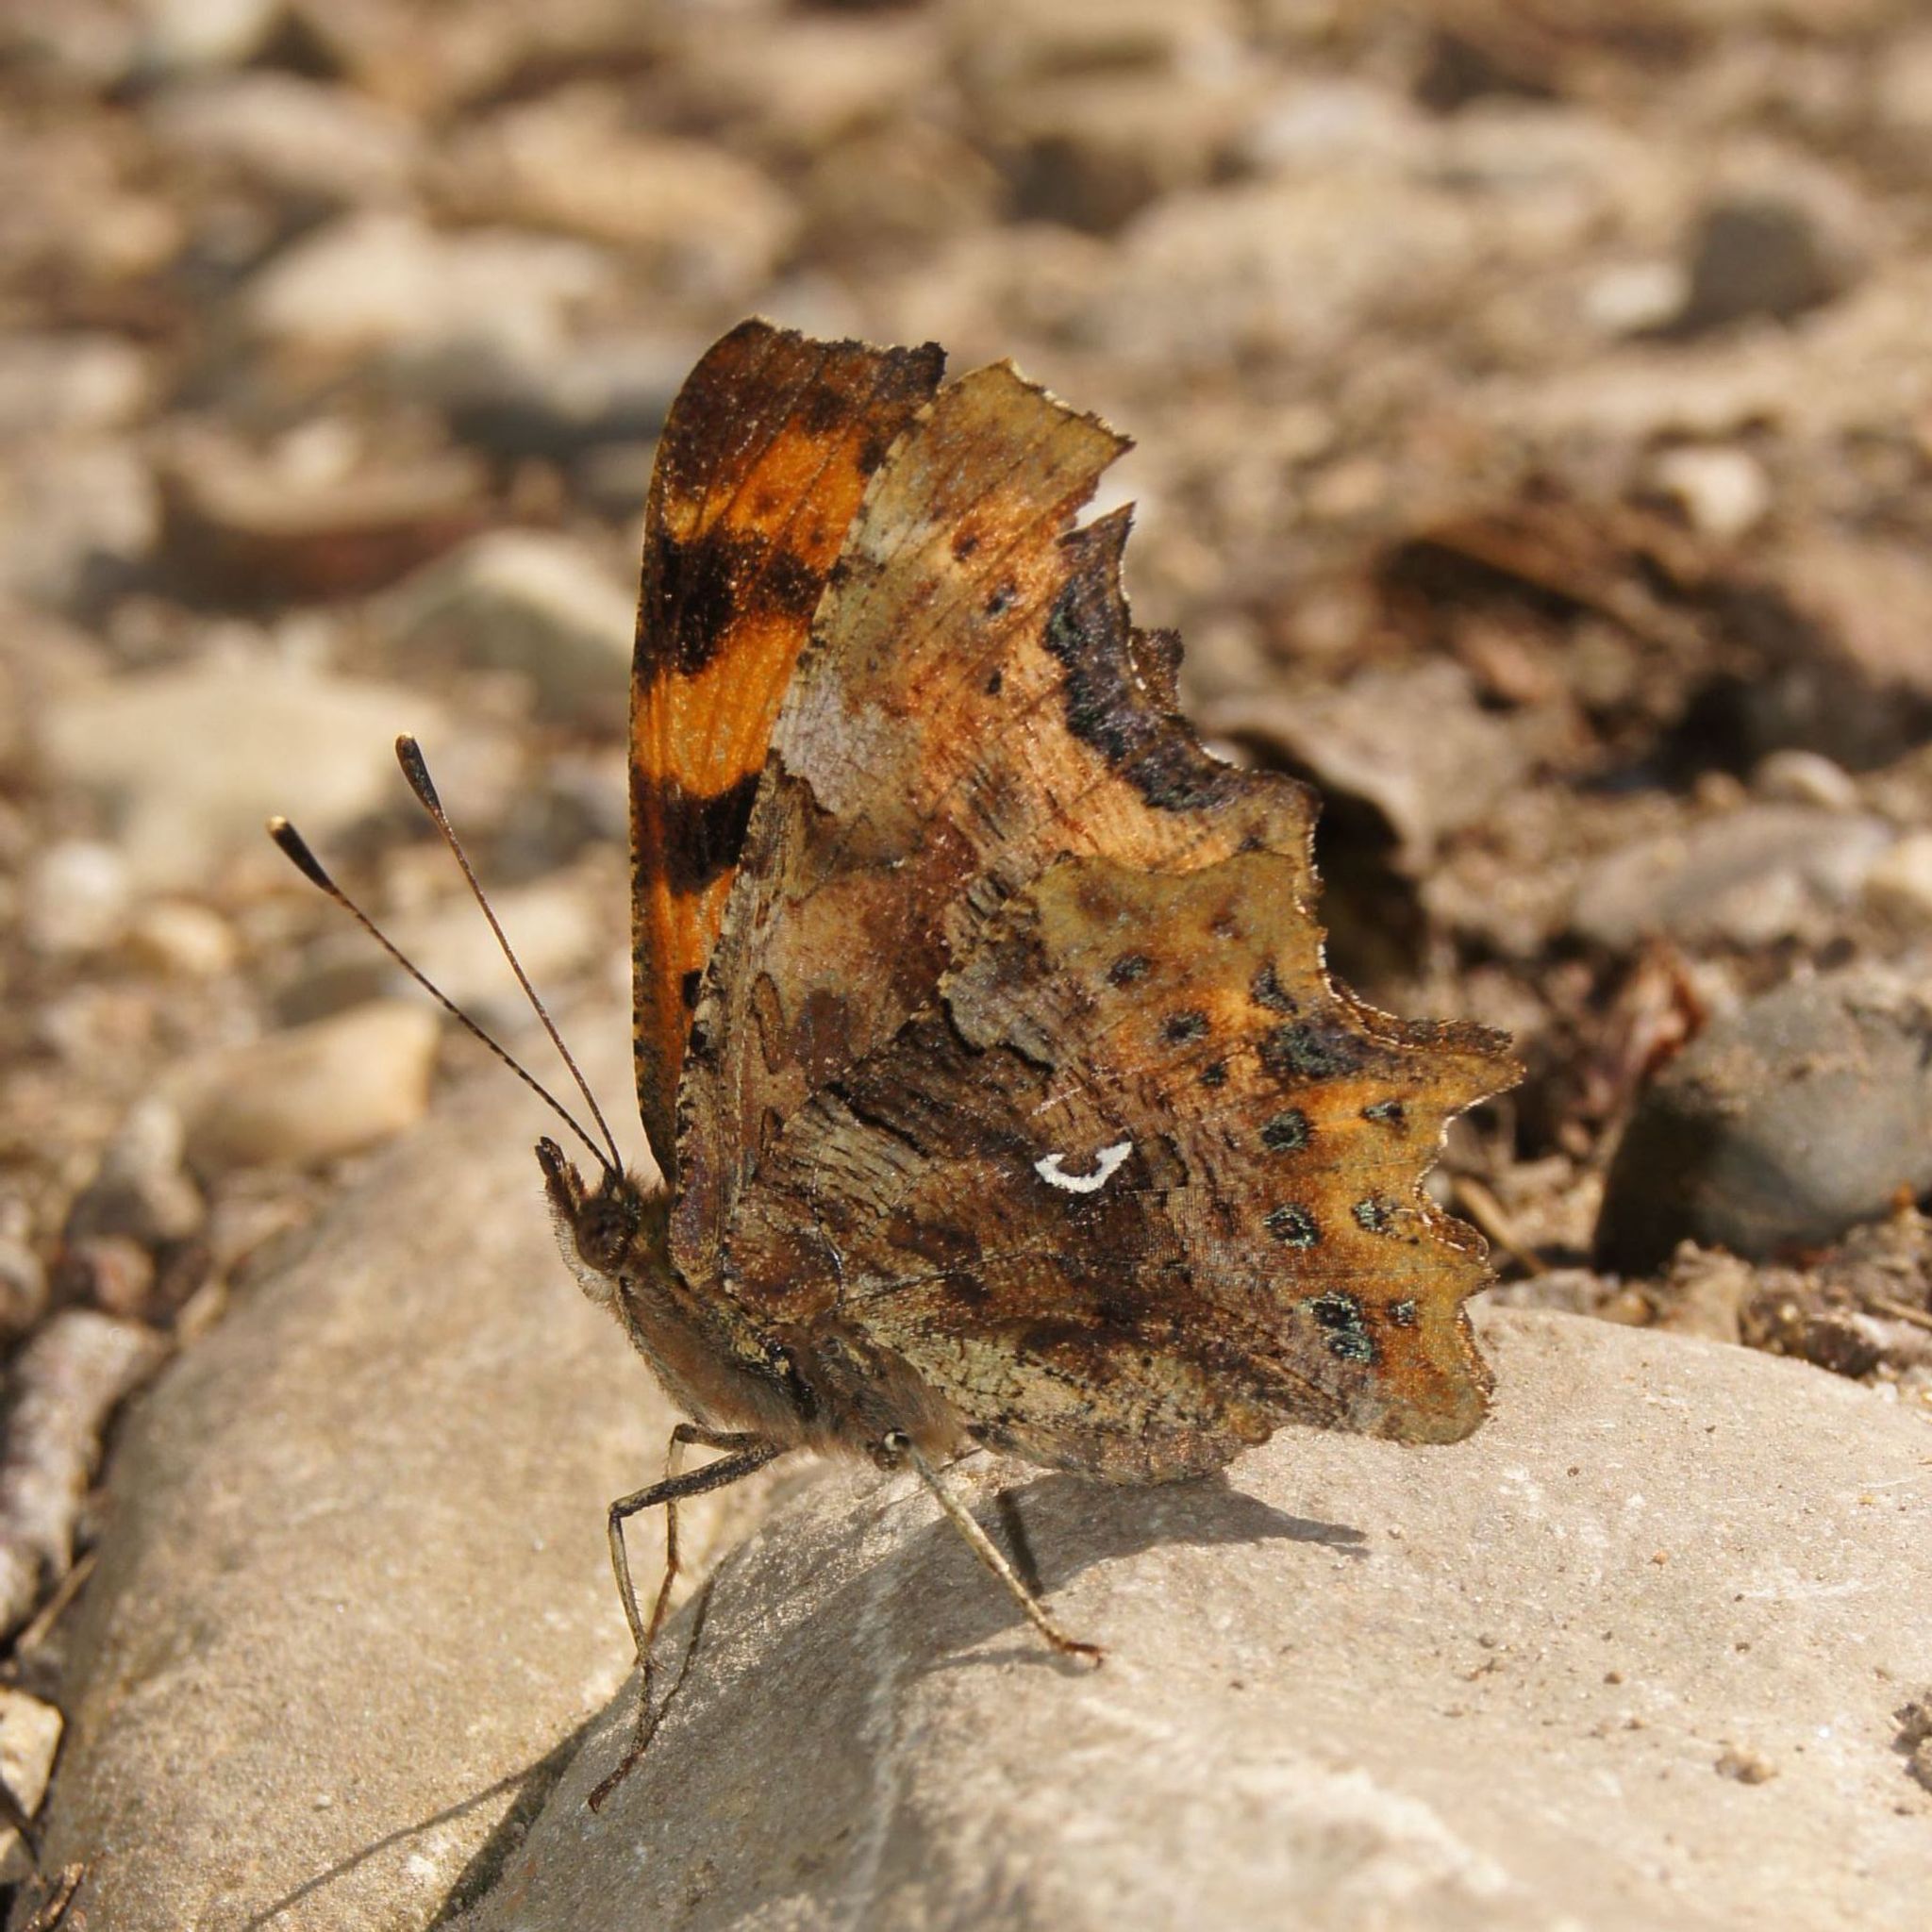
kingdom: Animalia
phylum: Arthropoda
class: Insecta
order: Lepidoptera
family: Nymphalidae
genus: Polygonia
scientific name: Polygonia c-album
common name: Comma
